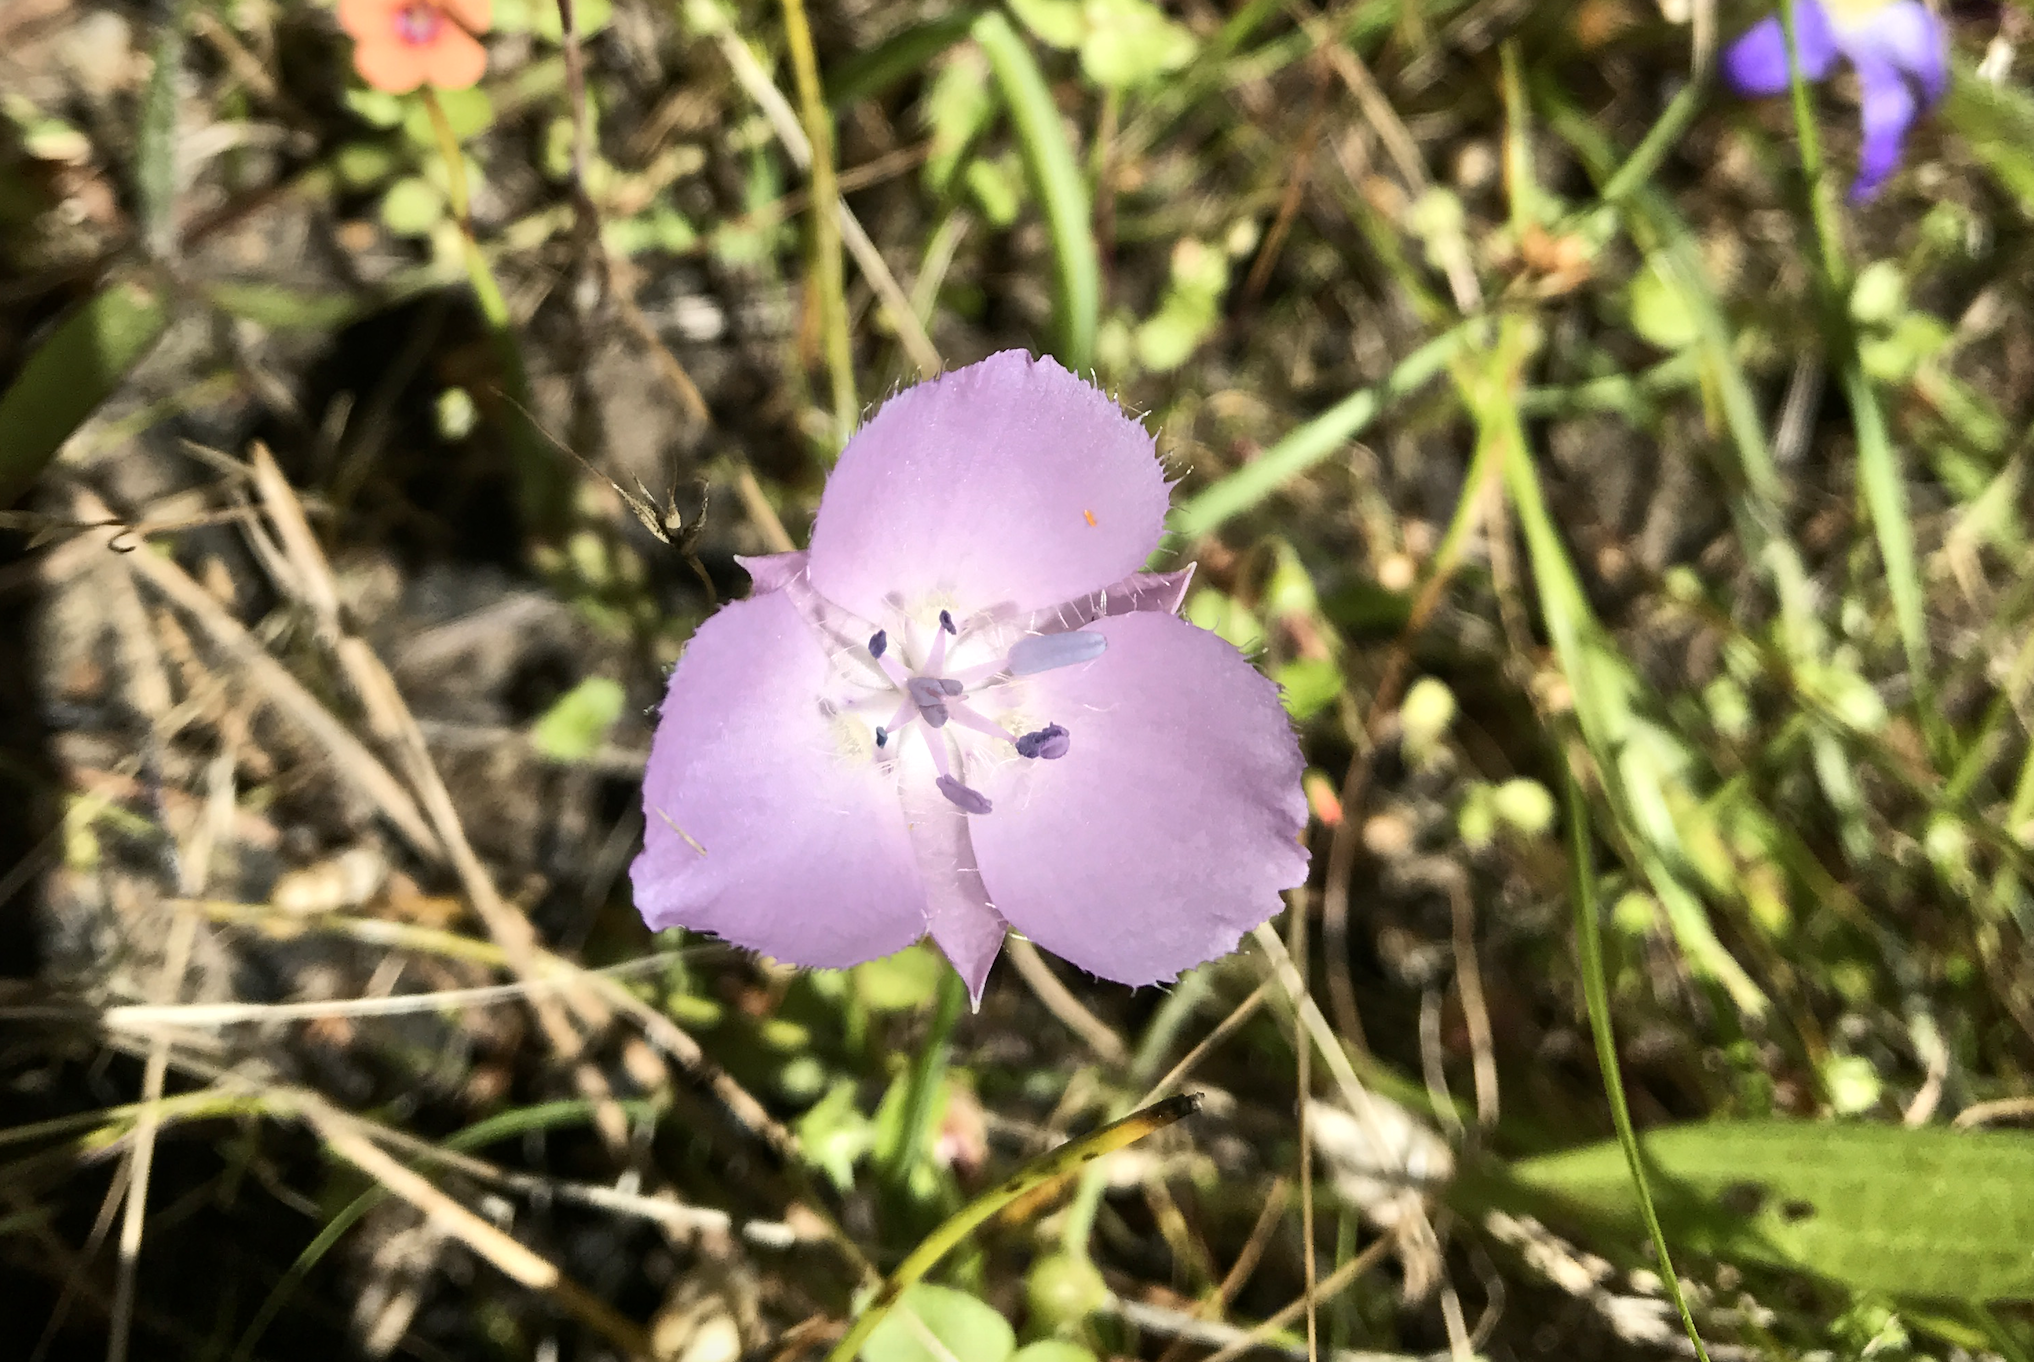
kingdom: Plantae
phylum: Tracheophyta
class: Liliopsida
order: Liliales
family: Liliaceae
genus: Calochortus
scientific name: Calochortus uniflorus
